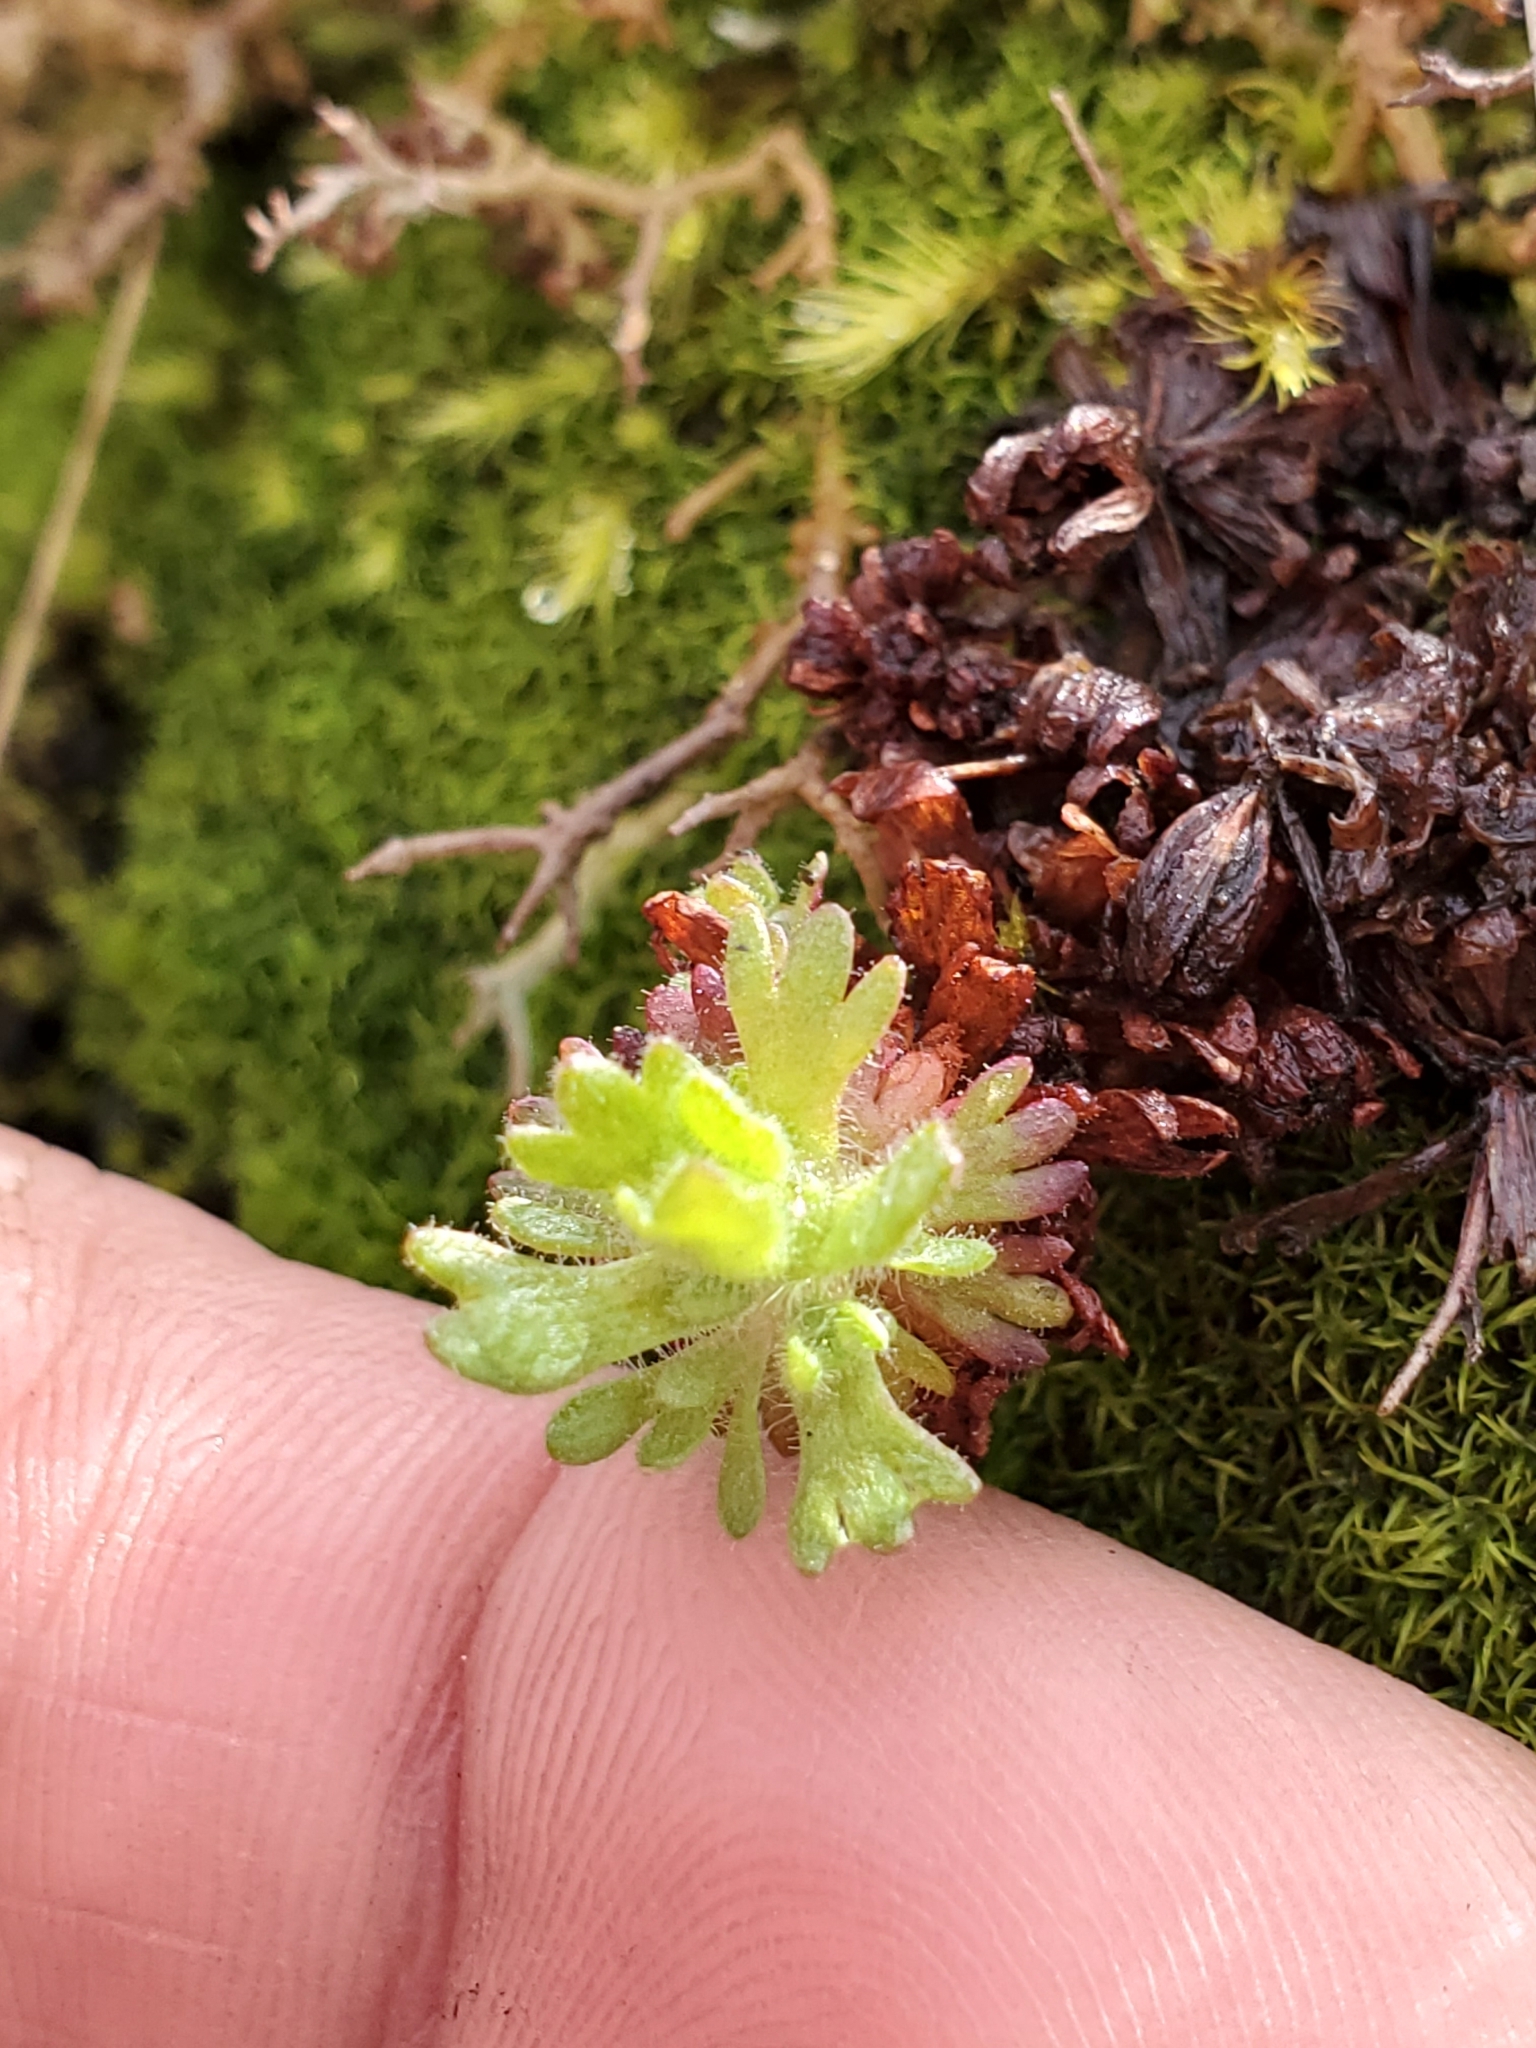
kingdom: Plantae
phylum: Tracheophyta
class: Magnoliopsida
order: Saxifragales
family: Saxifragaceae
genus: Saxifraga
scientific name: Saxifraga cespitosa
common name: Tufted saxifrage
